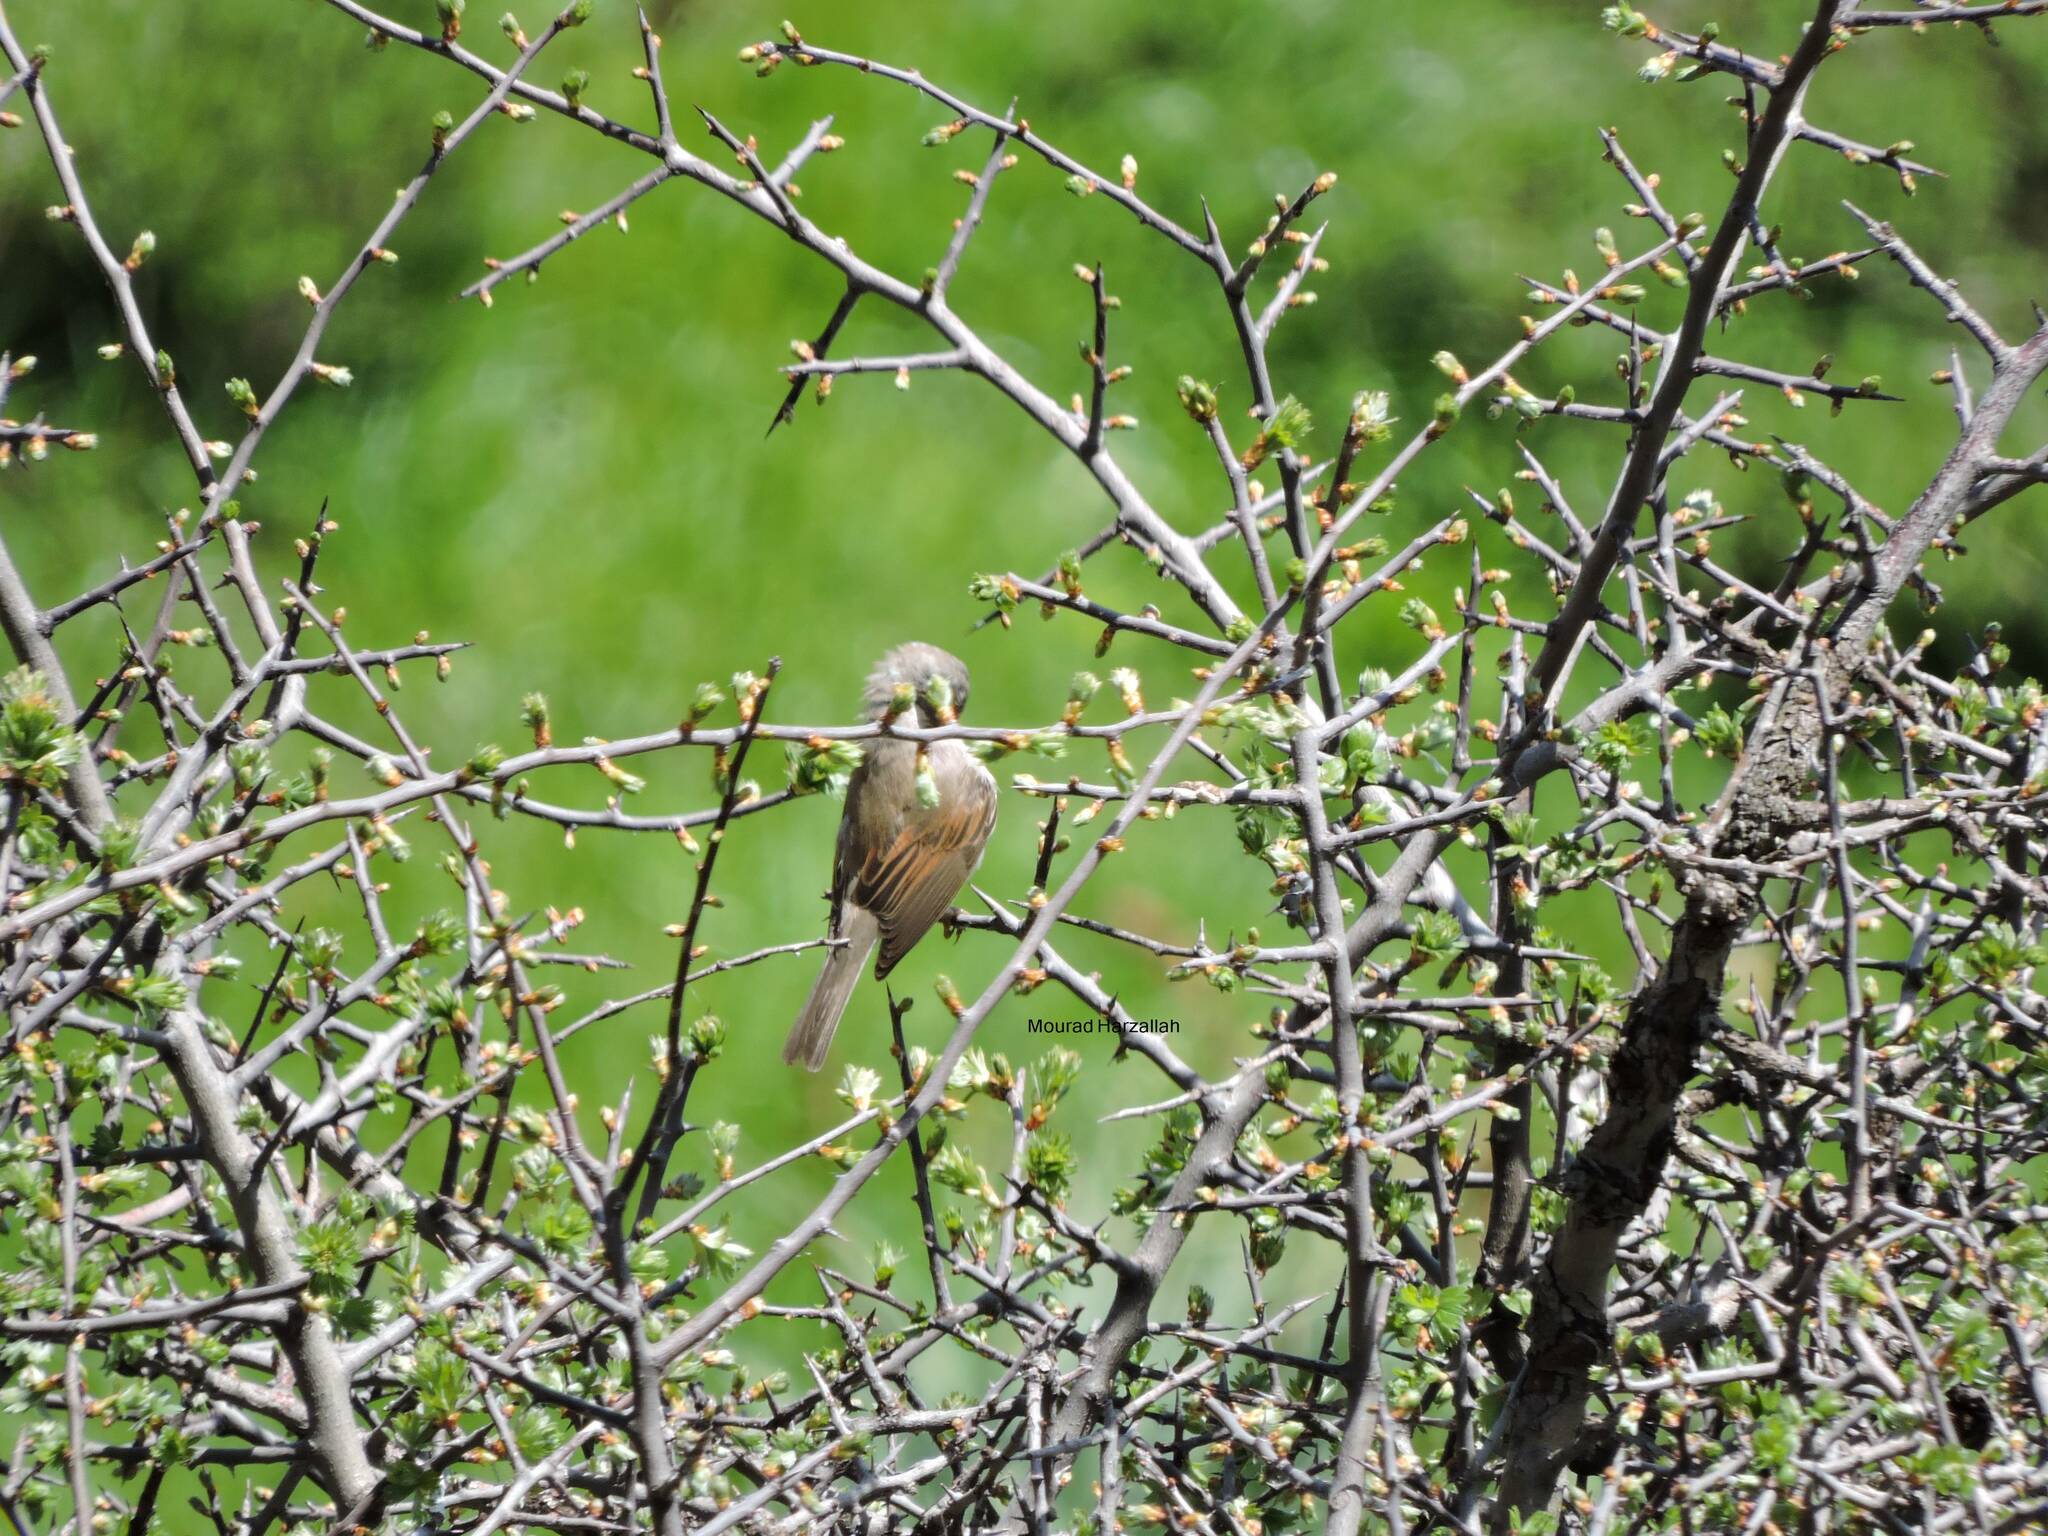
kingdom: Animalia
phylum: Chordata
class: Aves
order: Passeriformes
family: Sylviidae
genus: Sylvia
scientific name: Sylvia communis
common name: Common whitethroat
